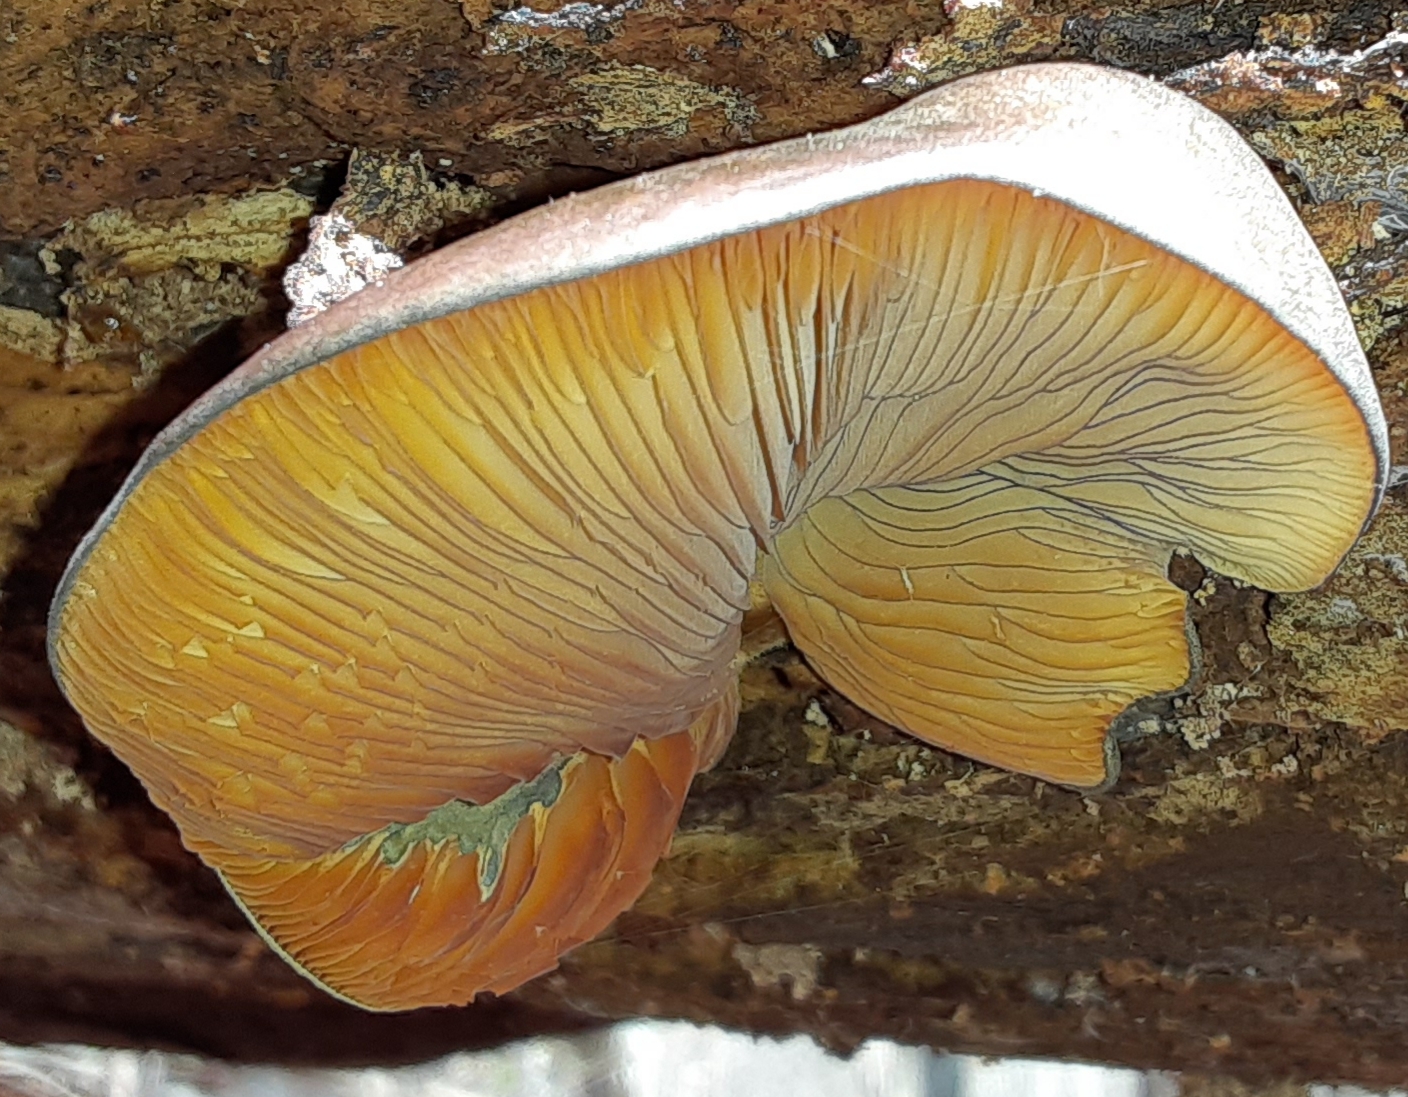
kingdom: Fungi
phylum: Basidiomycota
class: Agaricomycetes
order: Agaricales
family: Sarcomyxaceae
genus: Sarcomyxa
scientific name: Sarcomyxa serotina
